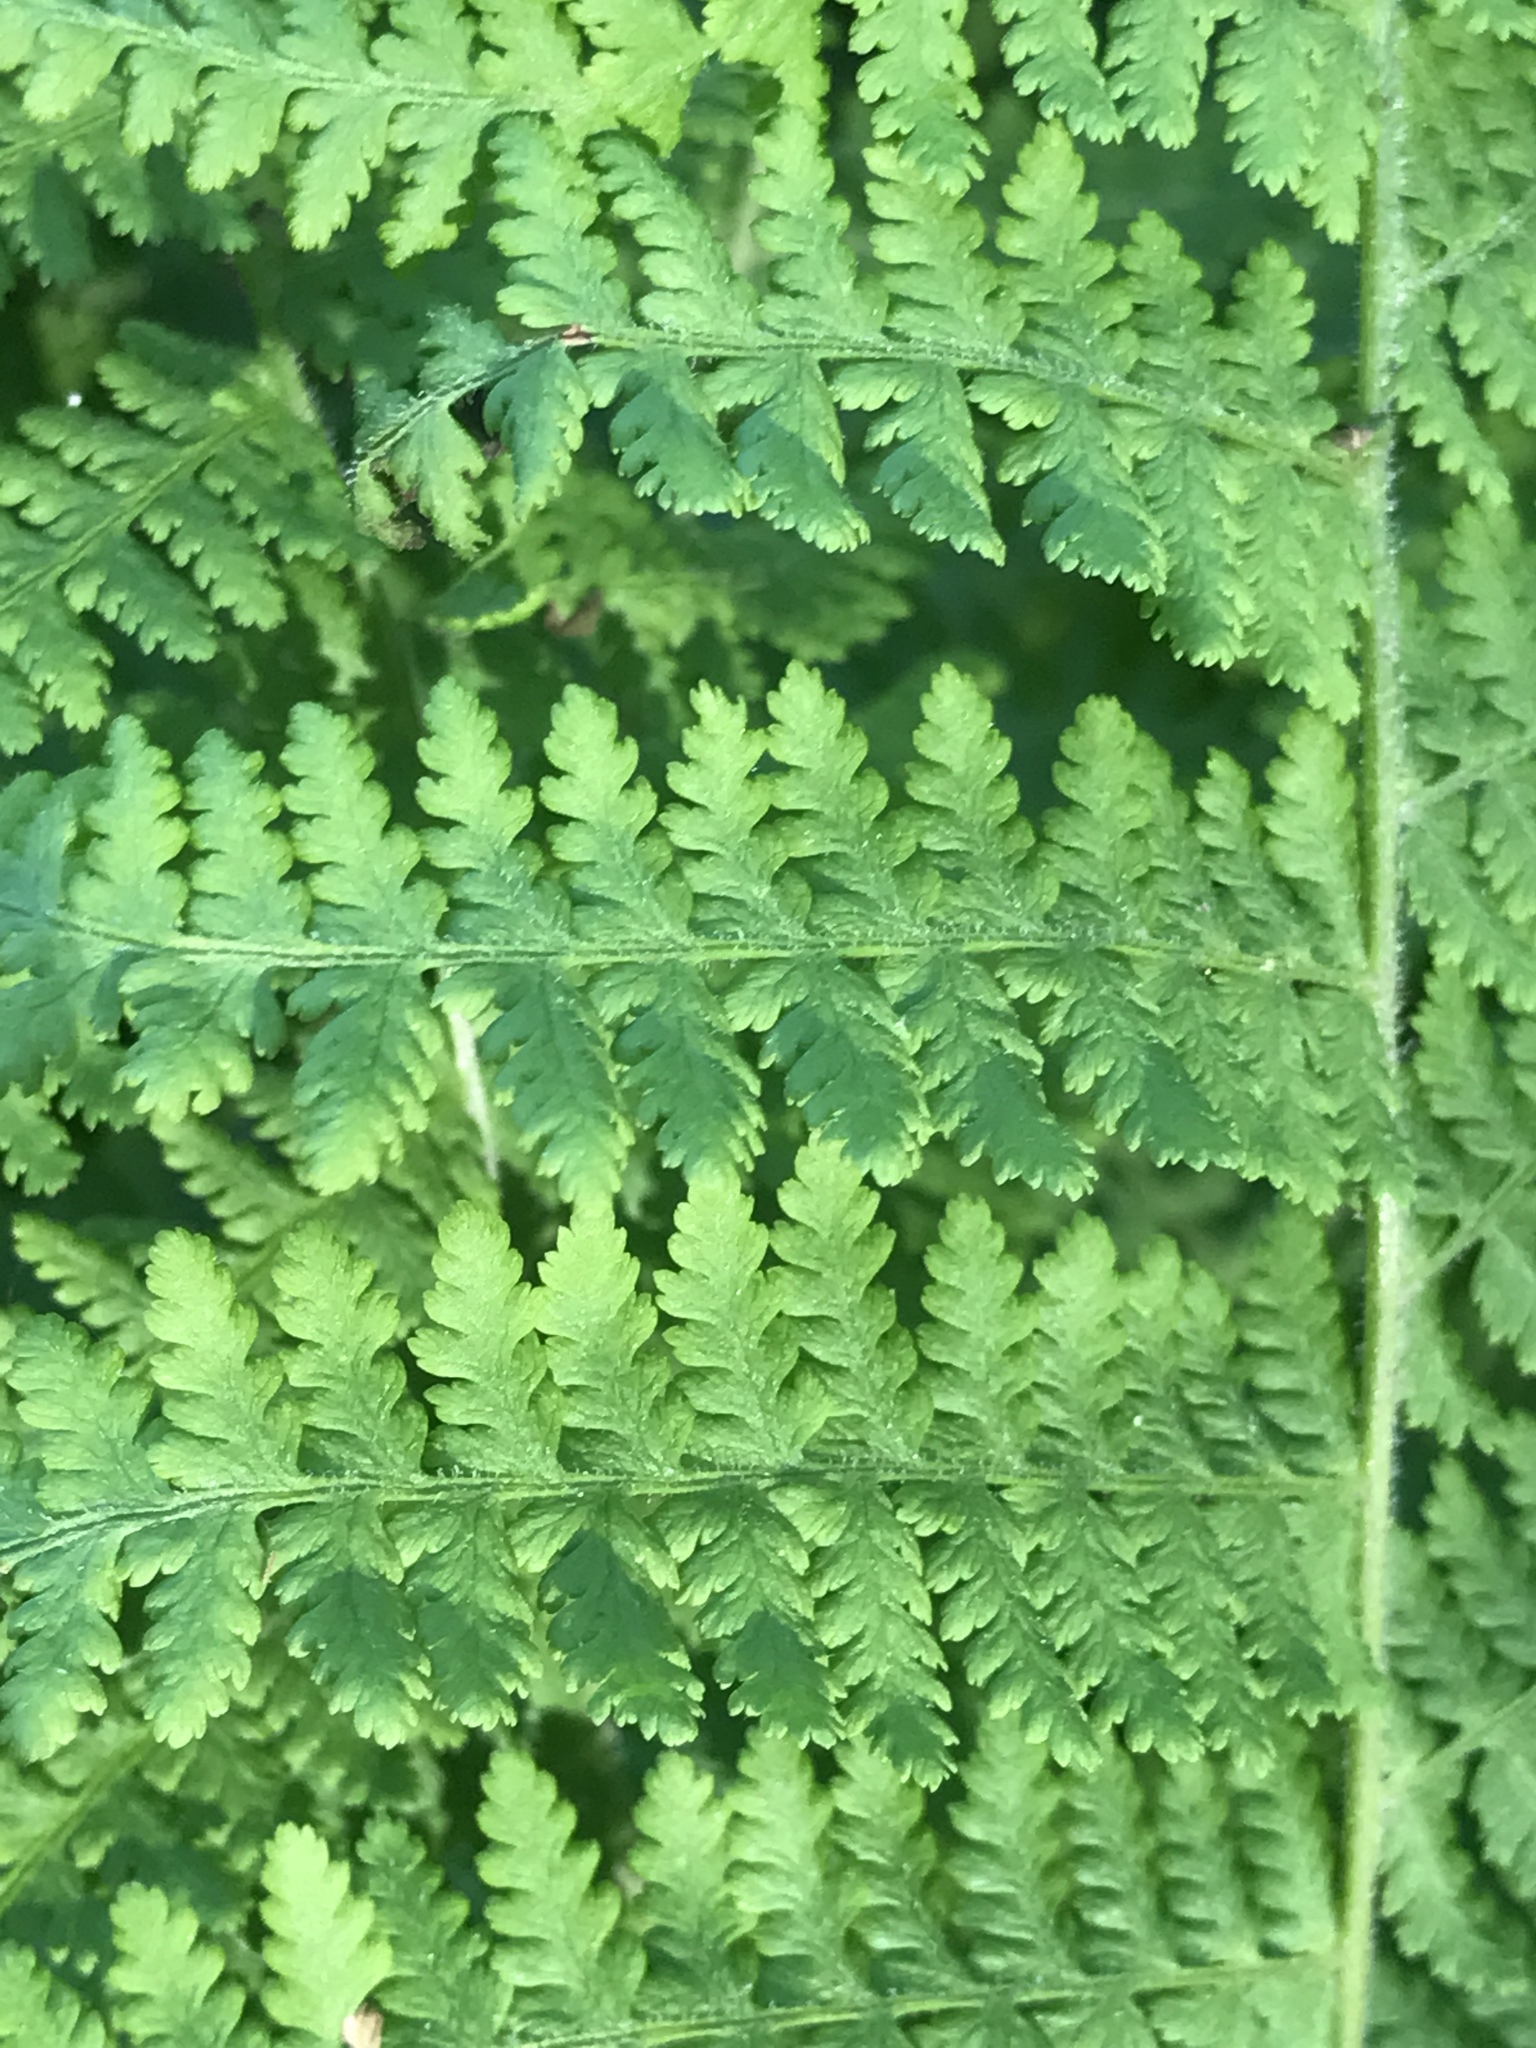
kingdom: Plantae
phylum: Tracheophyta
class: Polypodiopsida
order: Polypodiales
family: Dennstaedtiaceae
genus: Sitobolium
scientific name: Sitobolium punctilobum
